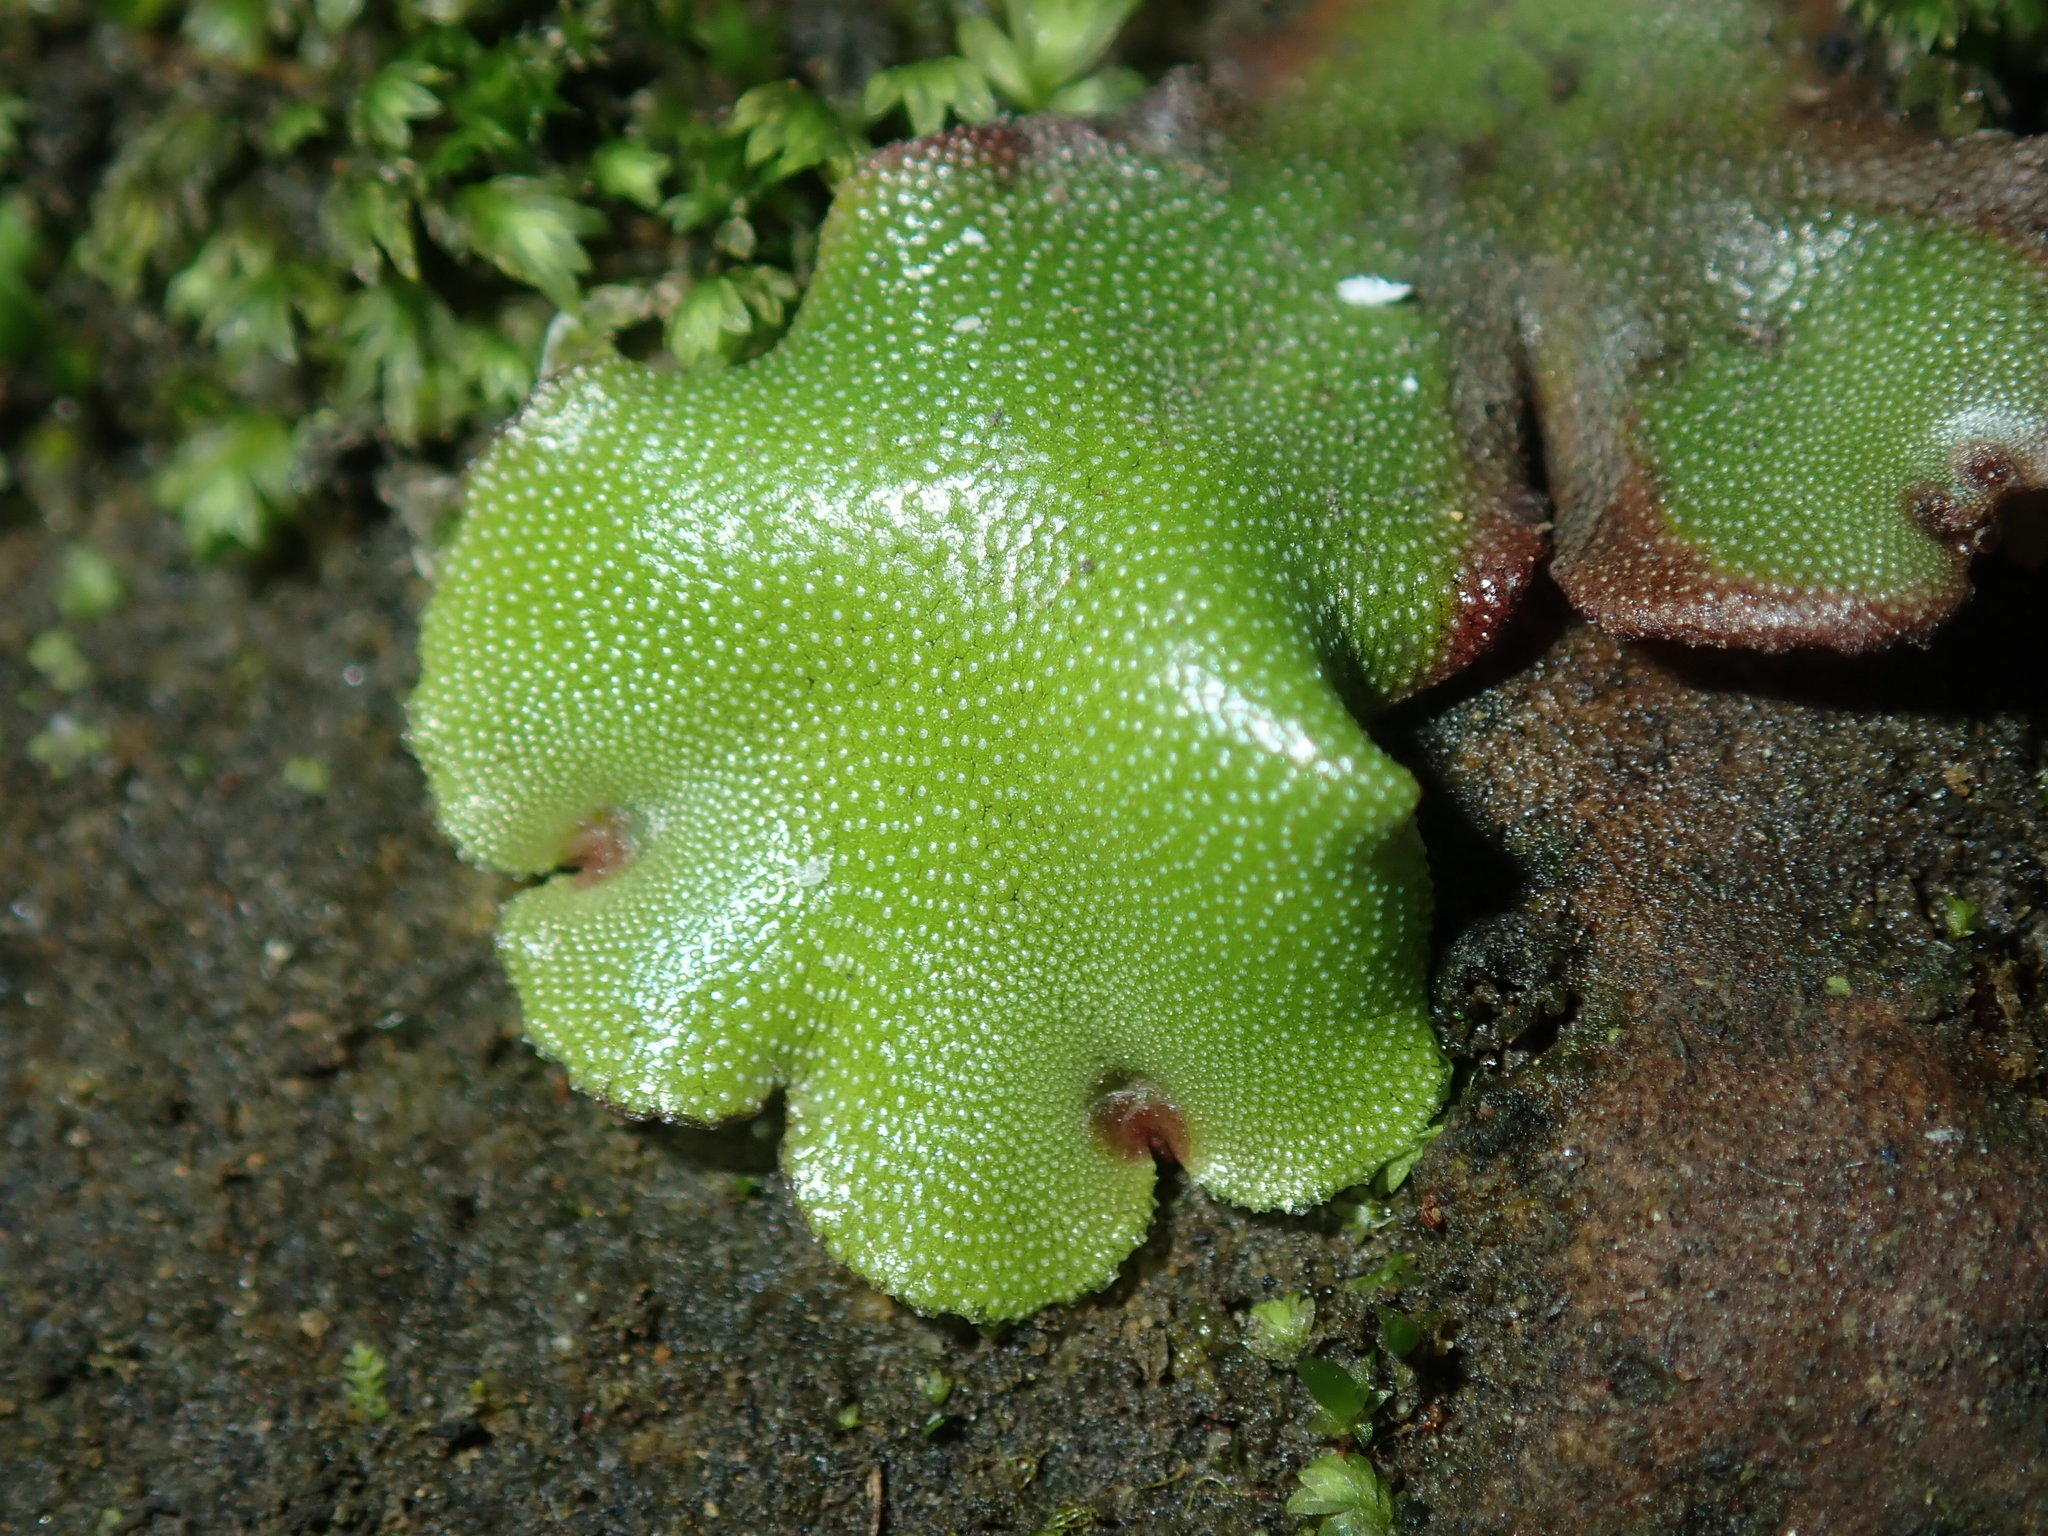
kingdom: Plantae
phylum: Marchantiophyta
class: Marchantiopsida
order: Marchantiales
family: Marchantiaceae
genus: Marchantia
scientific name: Marchantia berteroana
